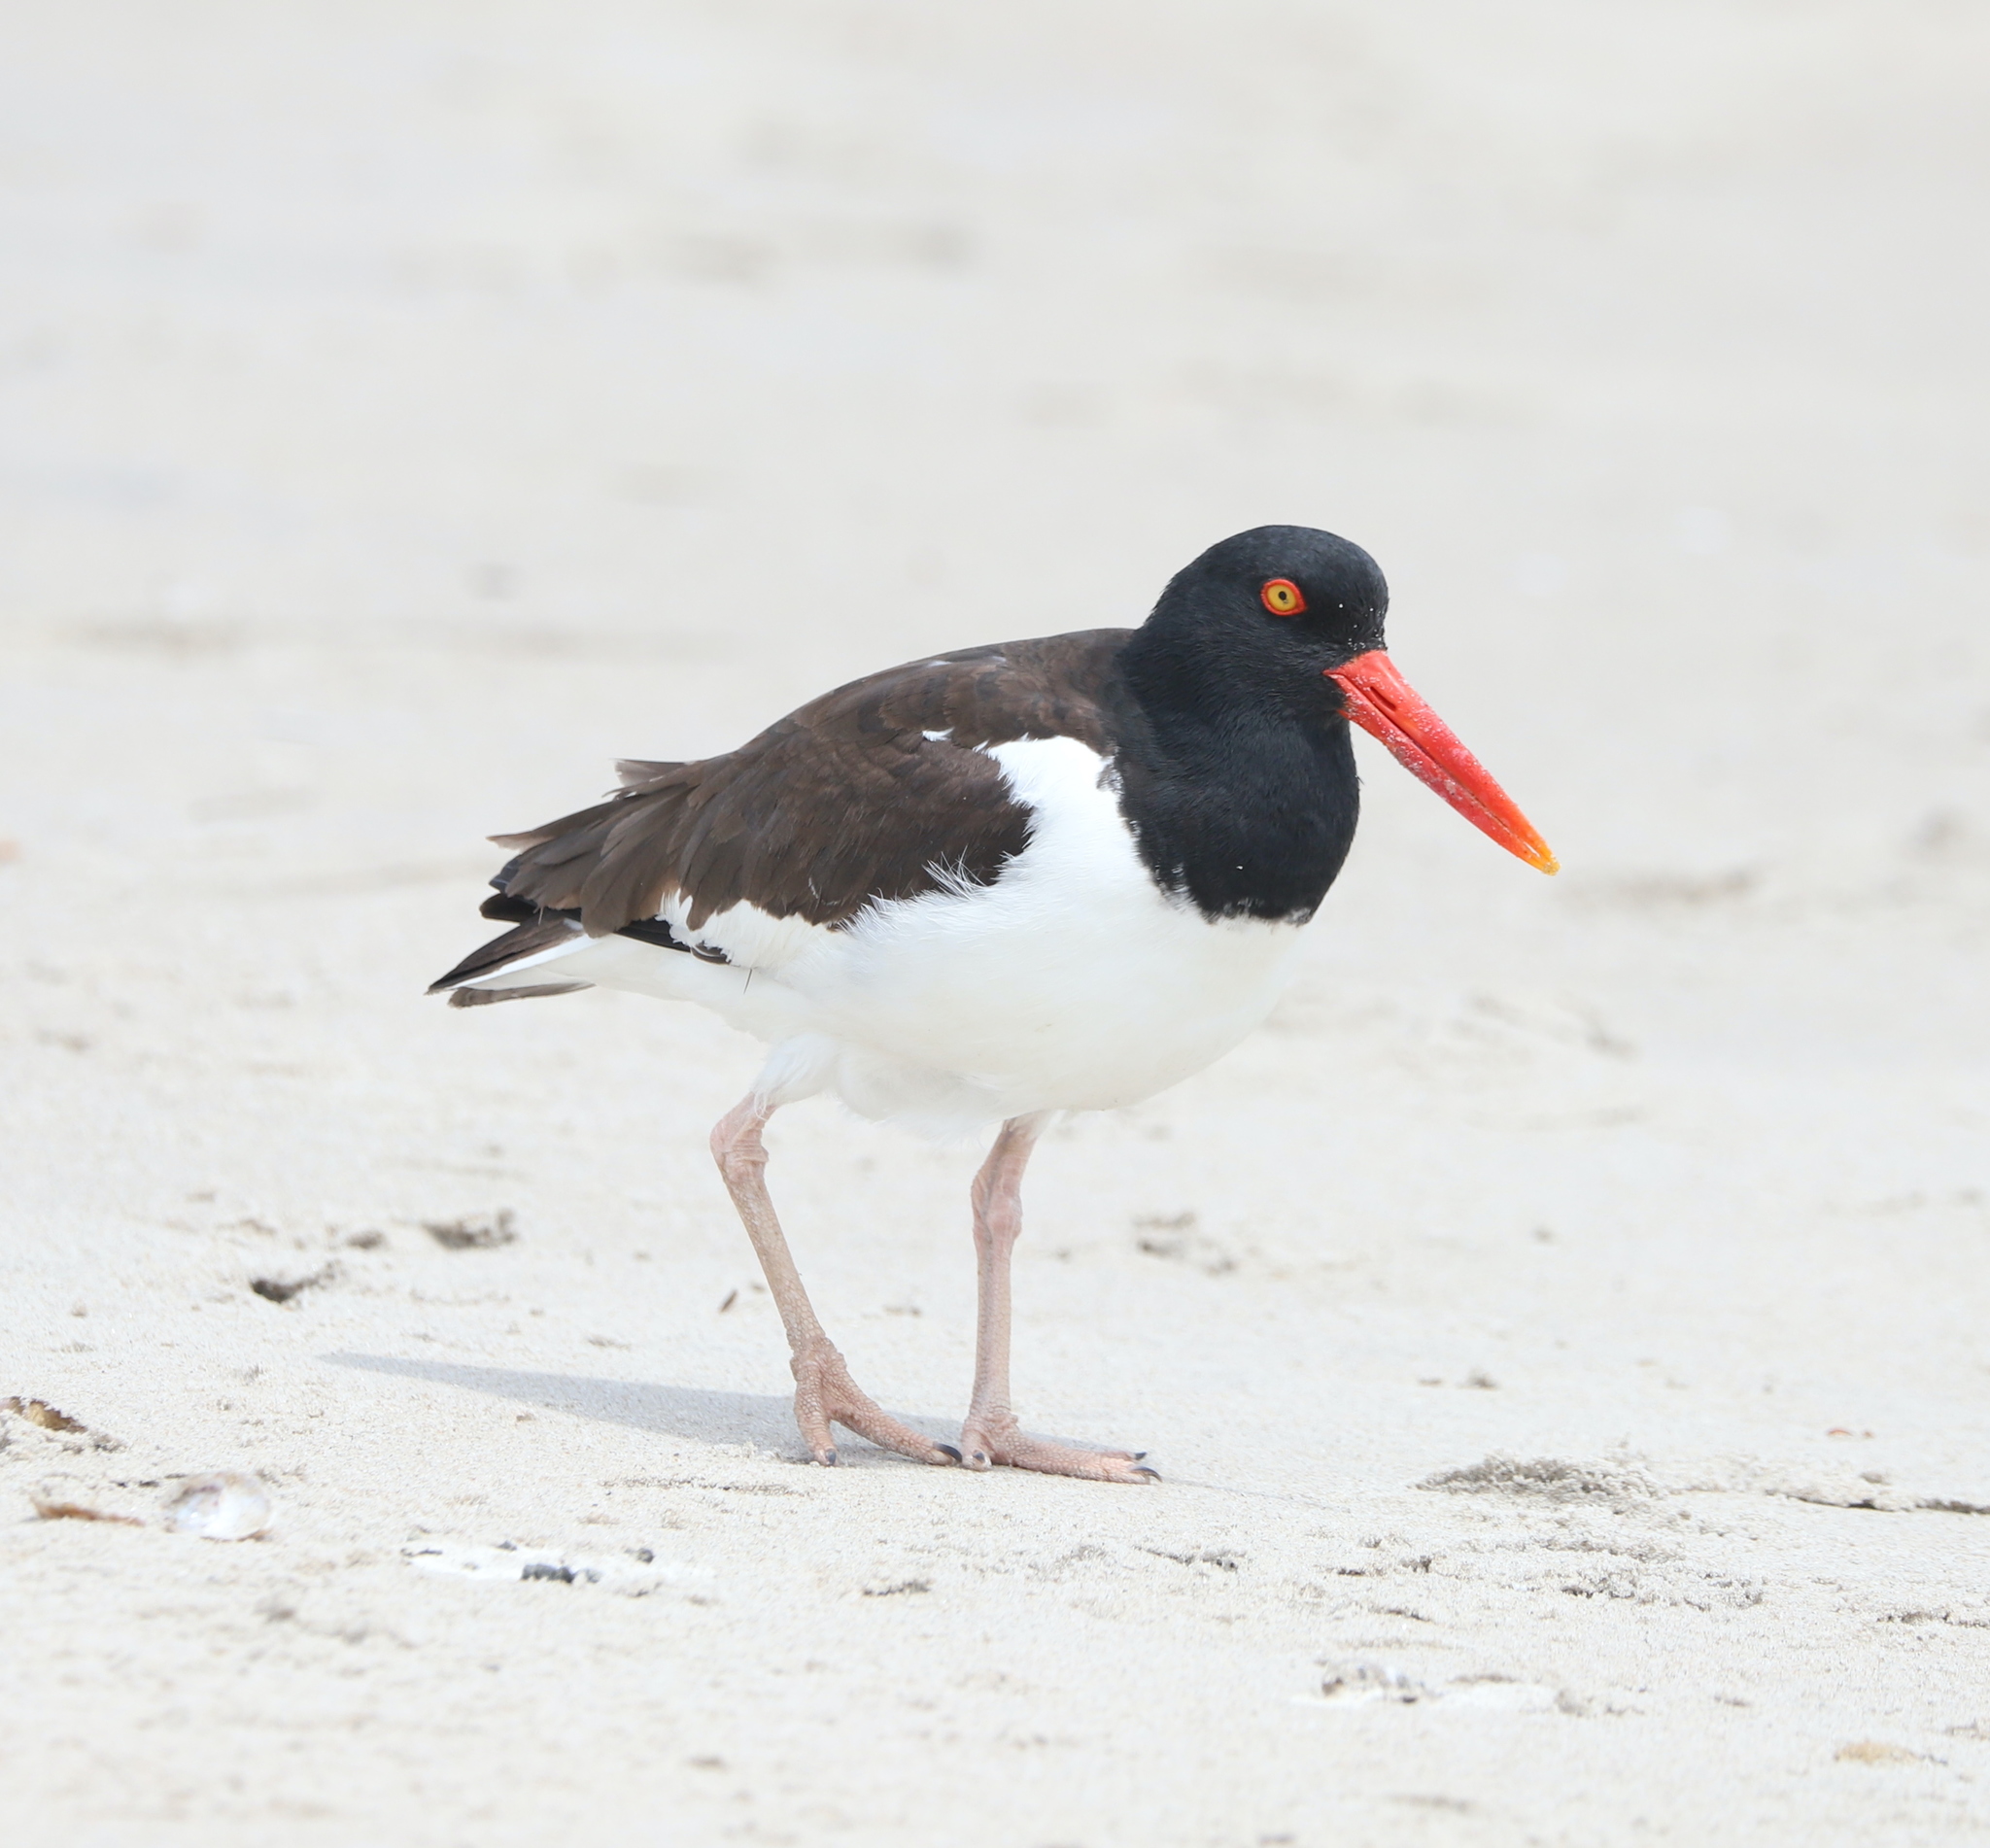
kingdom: Animalia
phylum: Chordata
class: Aves
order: Charadriiformes
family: Haematopodidae
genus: Haematopus
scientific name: Haematopus palliatus
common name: American oystercatcher
